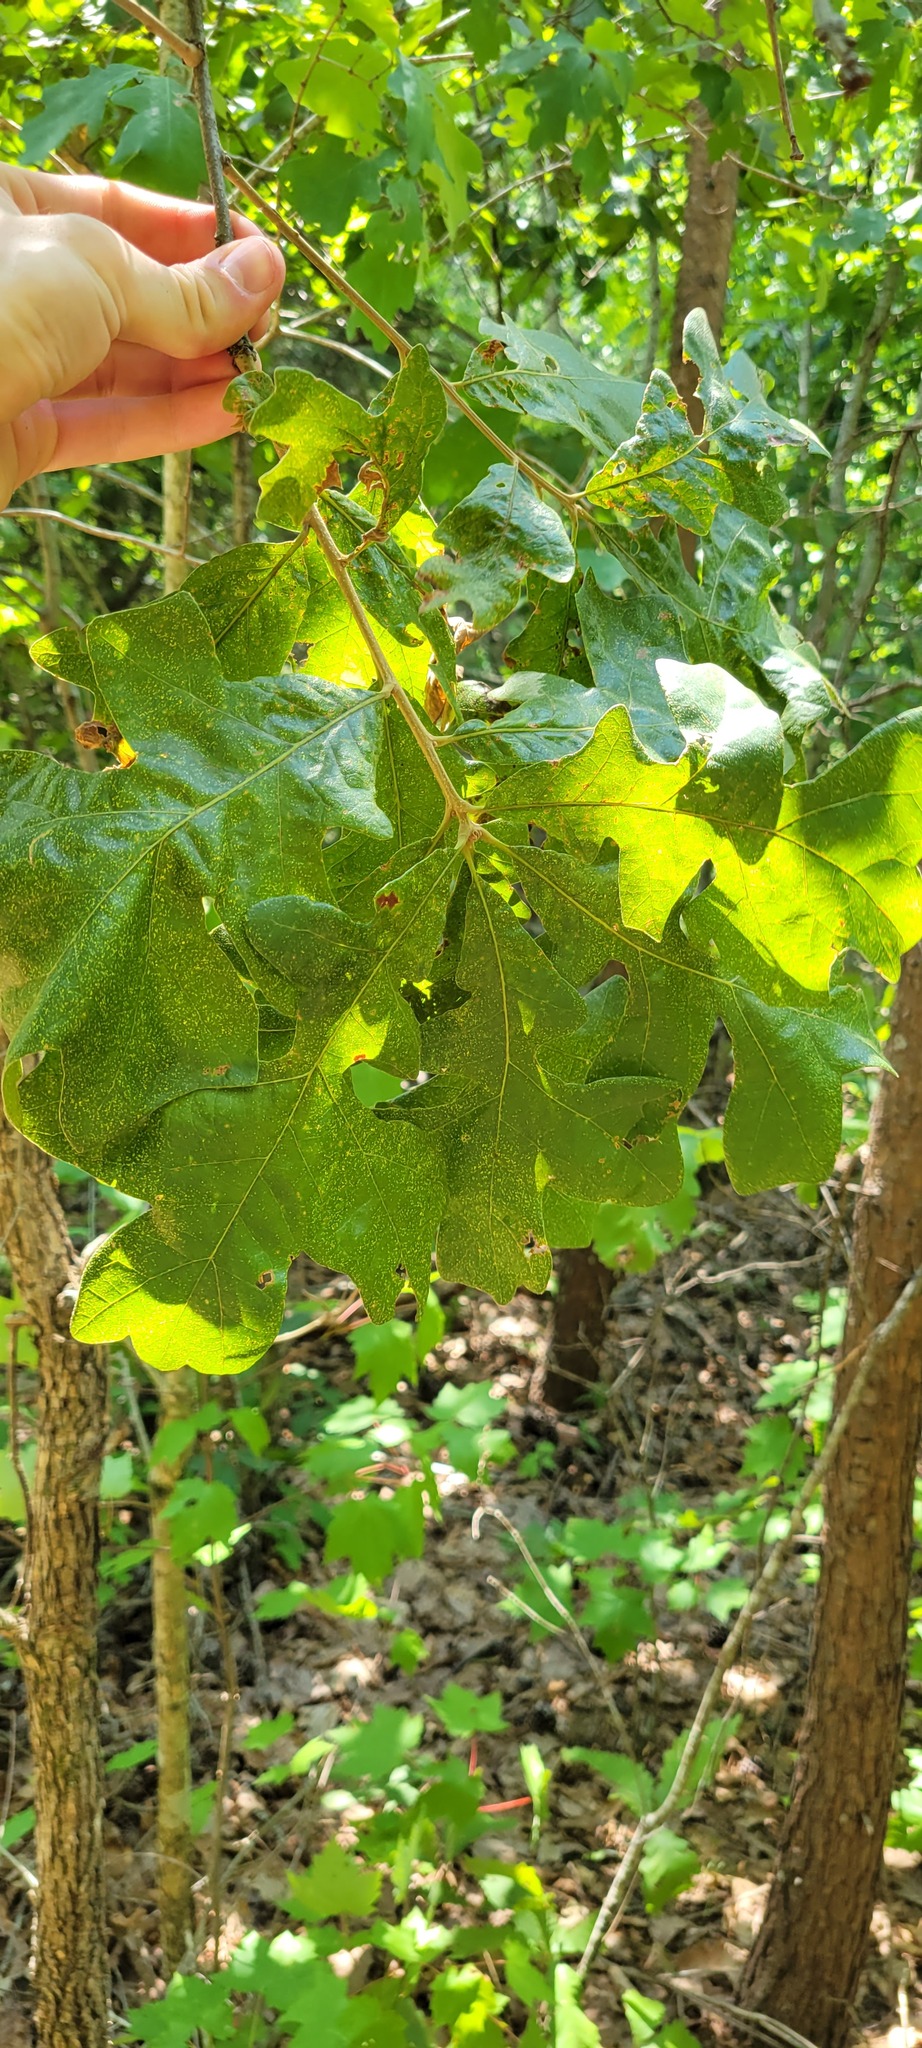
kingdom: Plantae
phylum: Tracheophyta
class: Magnoliopsida
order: Fagales
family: Fagaceae
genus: Quercus
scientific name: Quercus stellata
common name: Post oak
